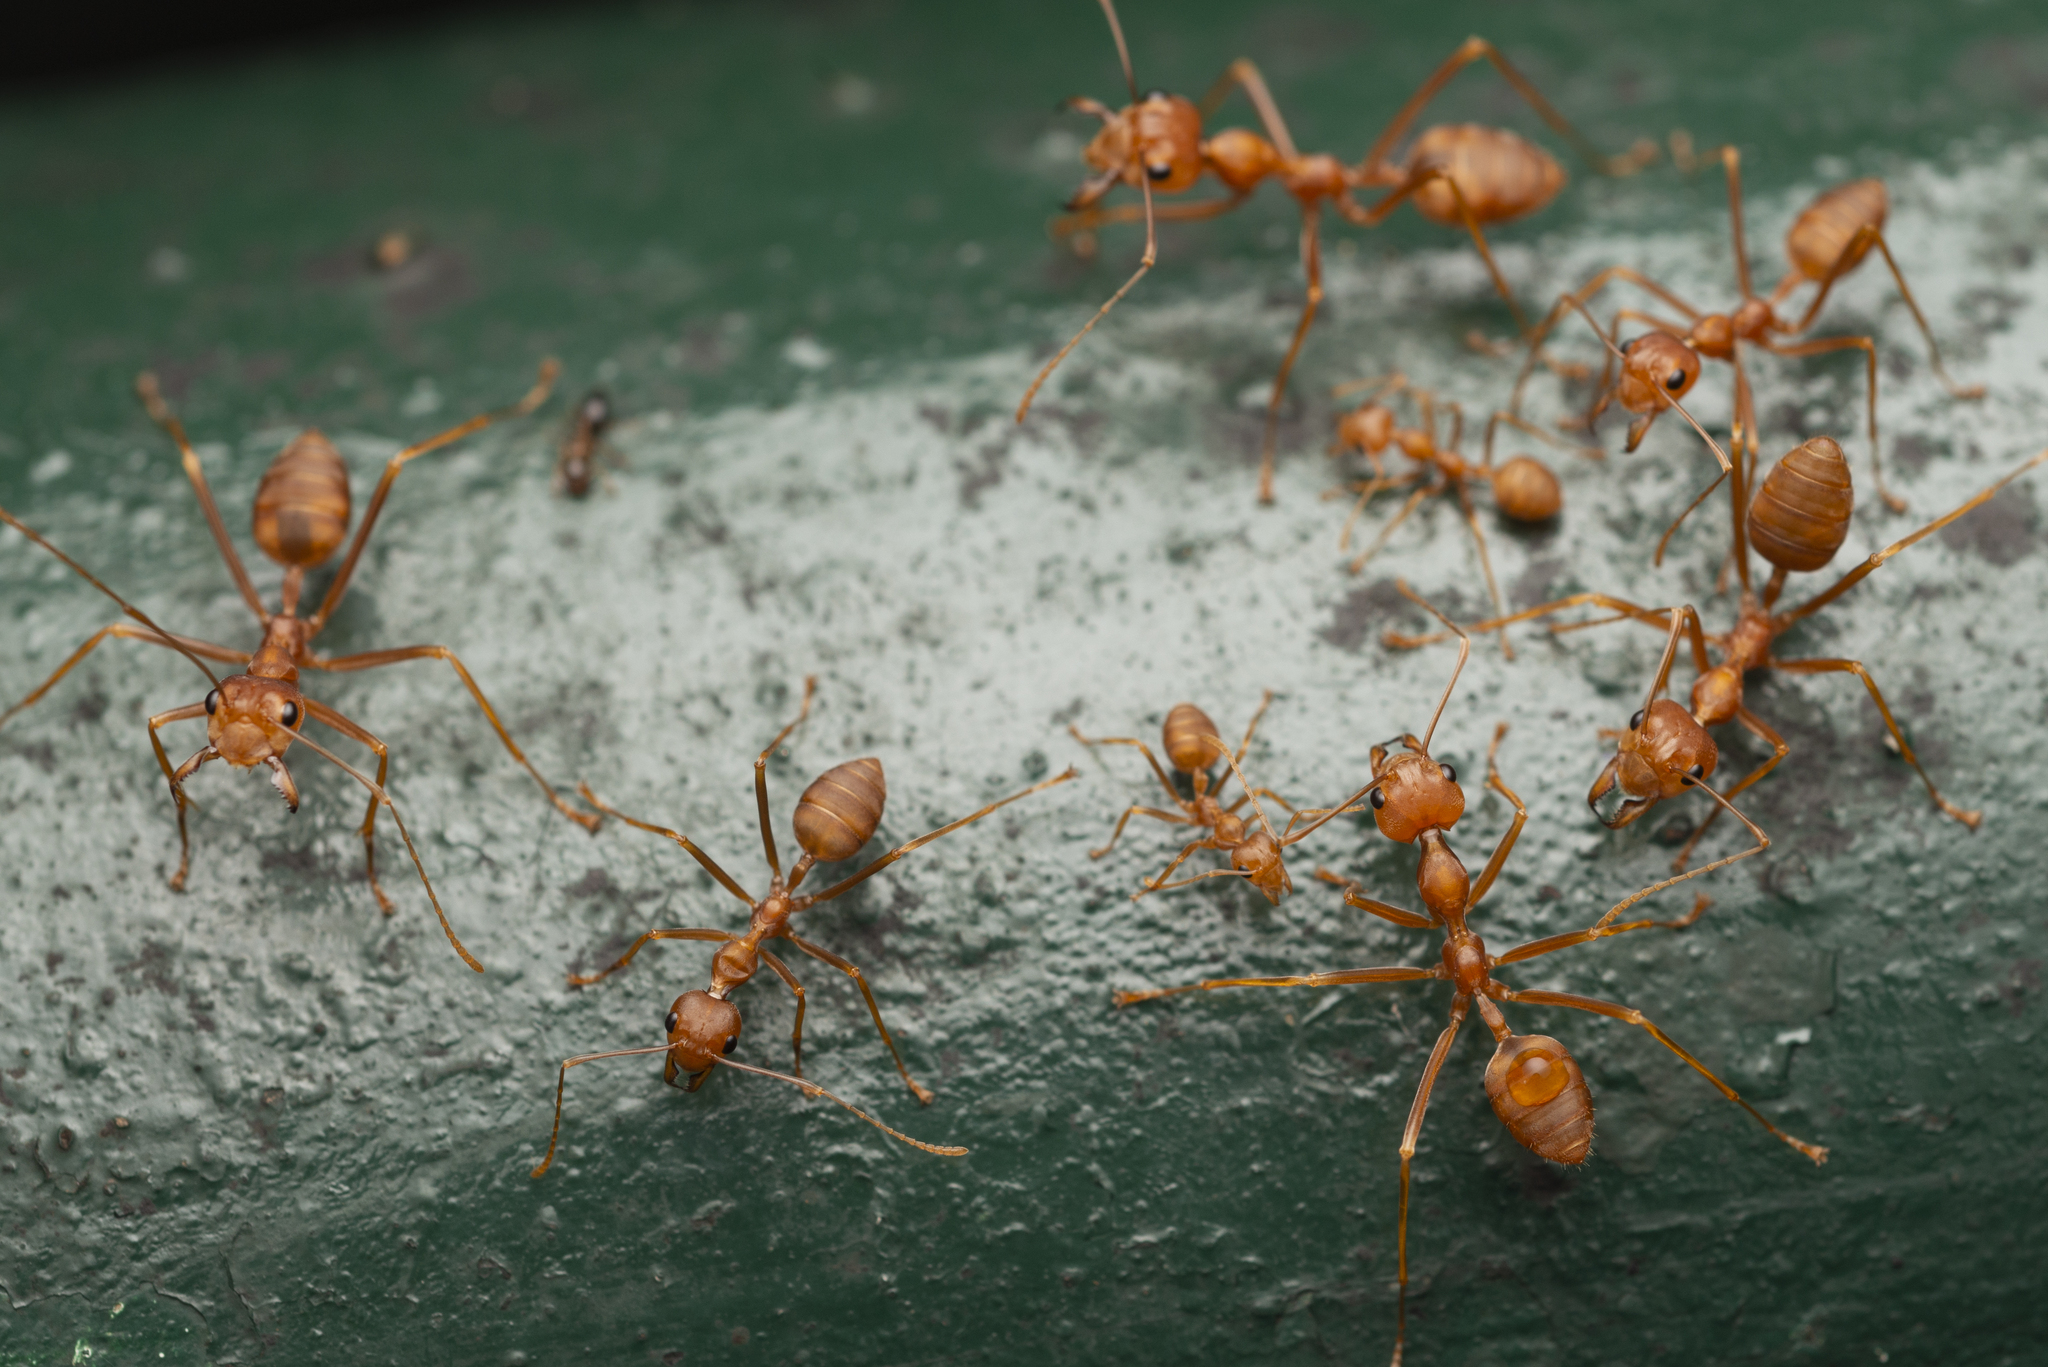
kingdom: Animalia
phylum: Arthropoda
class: Insecta
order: Hymenoptera
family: Formicidae
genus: Oecophylla
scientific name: Oecophylla smaragdina
